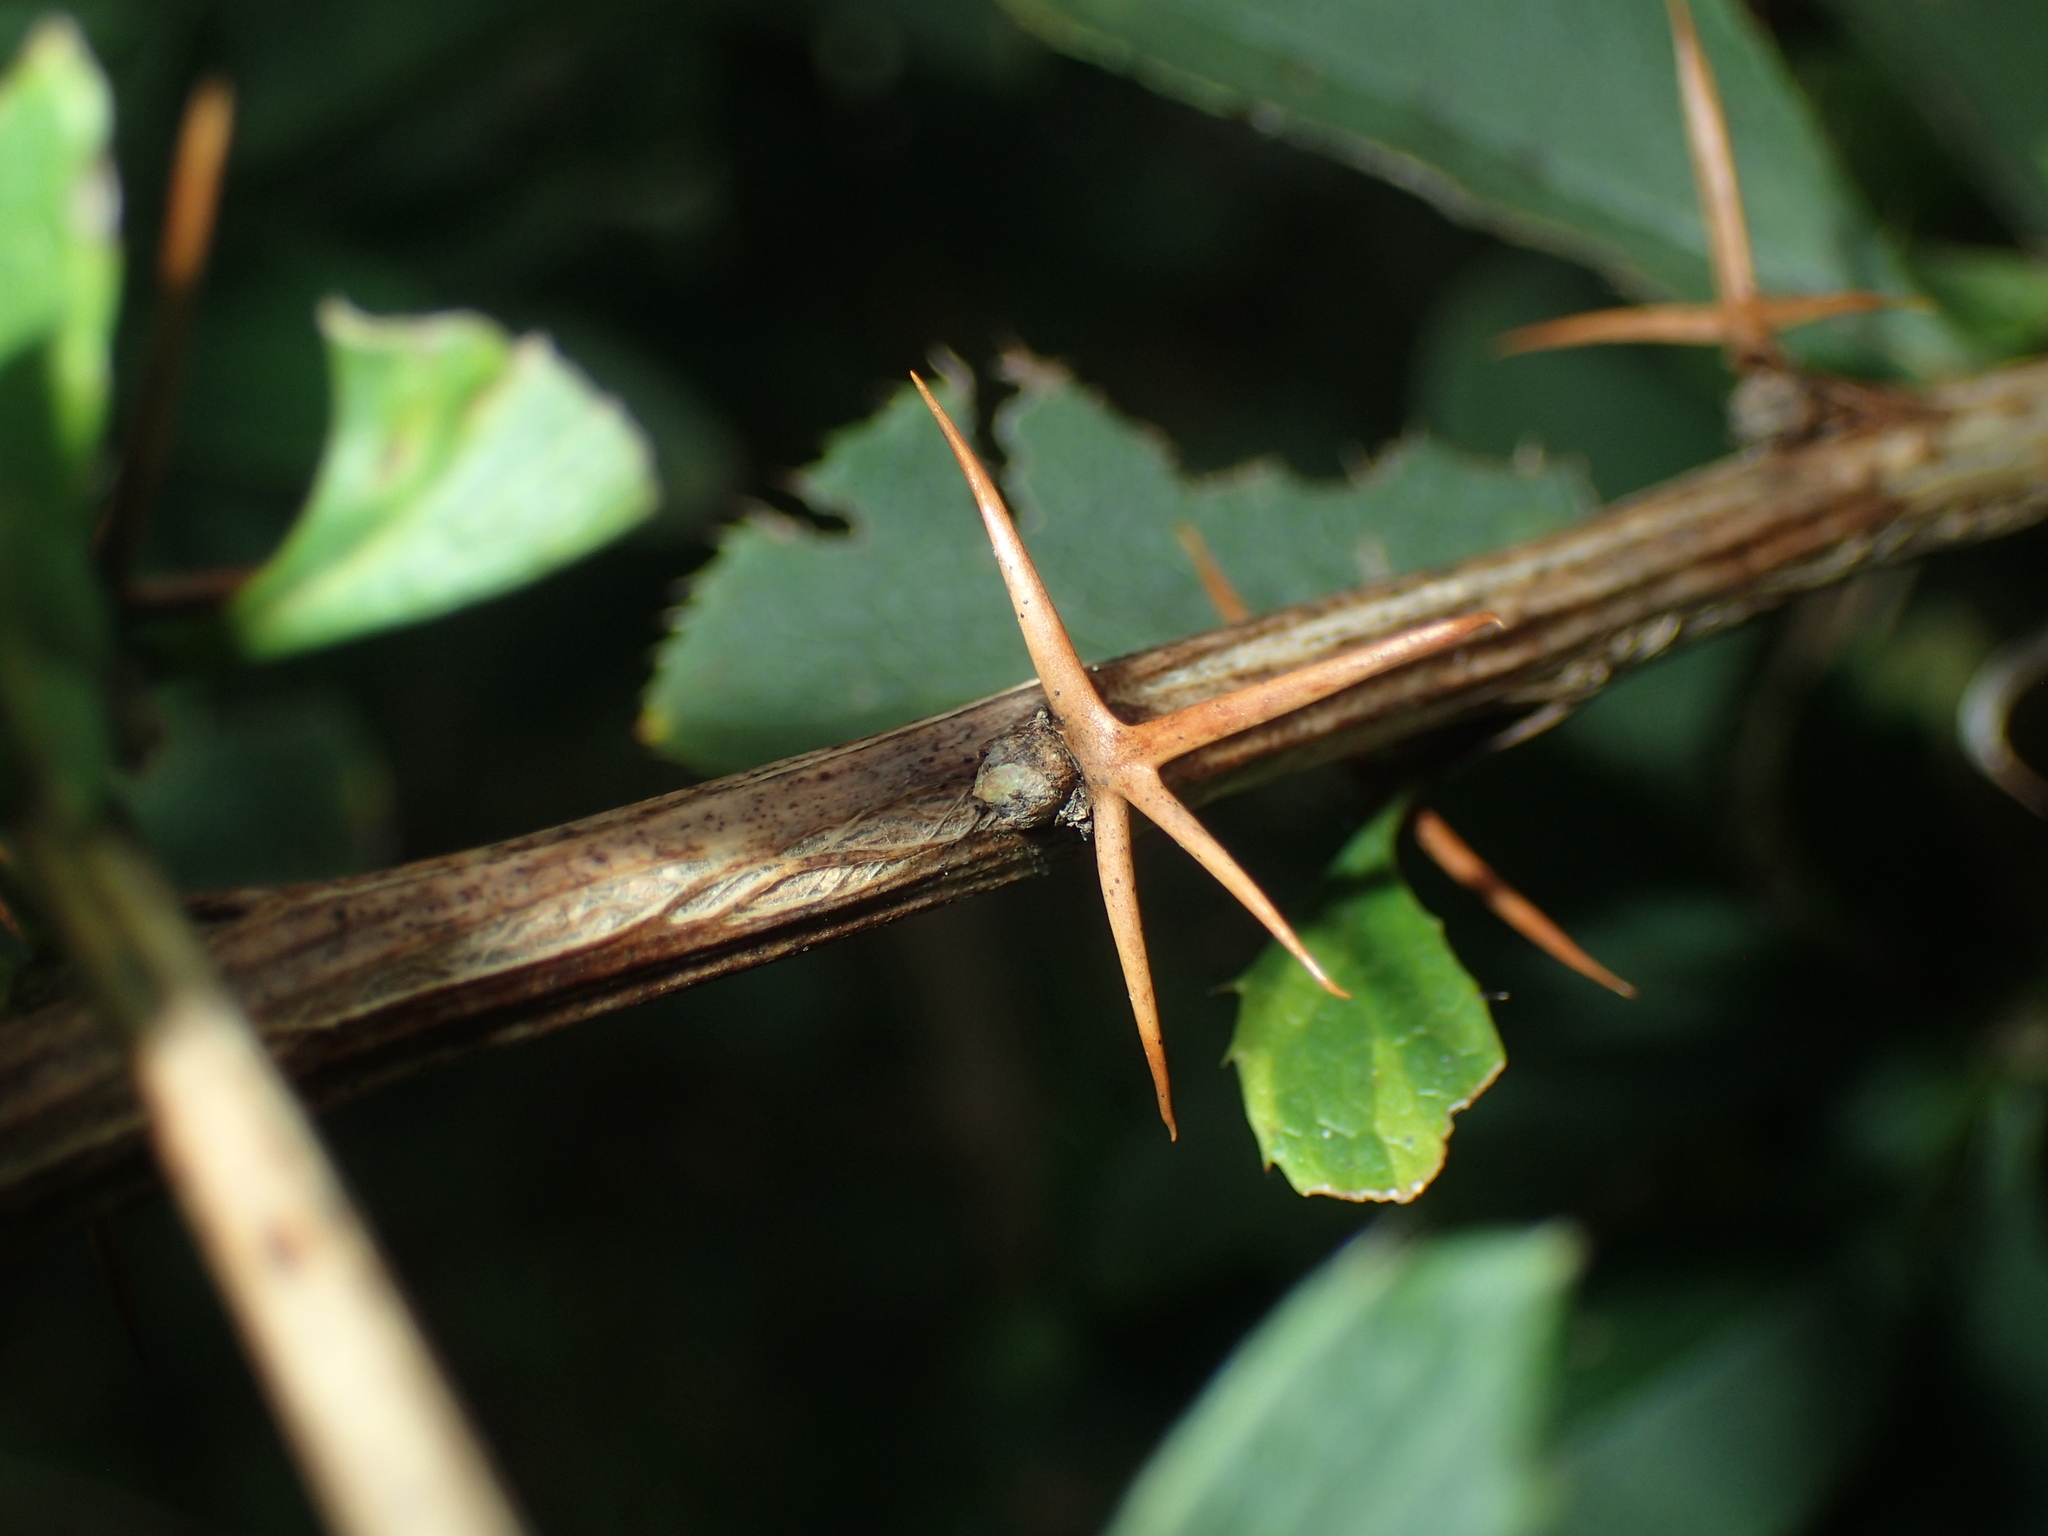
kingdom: Plantae
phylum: Tracheophyta
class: Magnoliopsida
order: Ranunculales
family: Berberidaceae
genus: Berberis
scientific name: Berberis vulgaris
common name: Barberry
